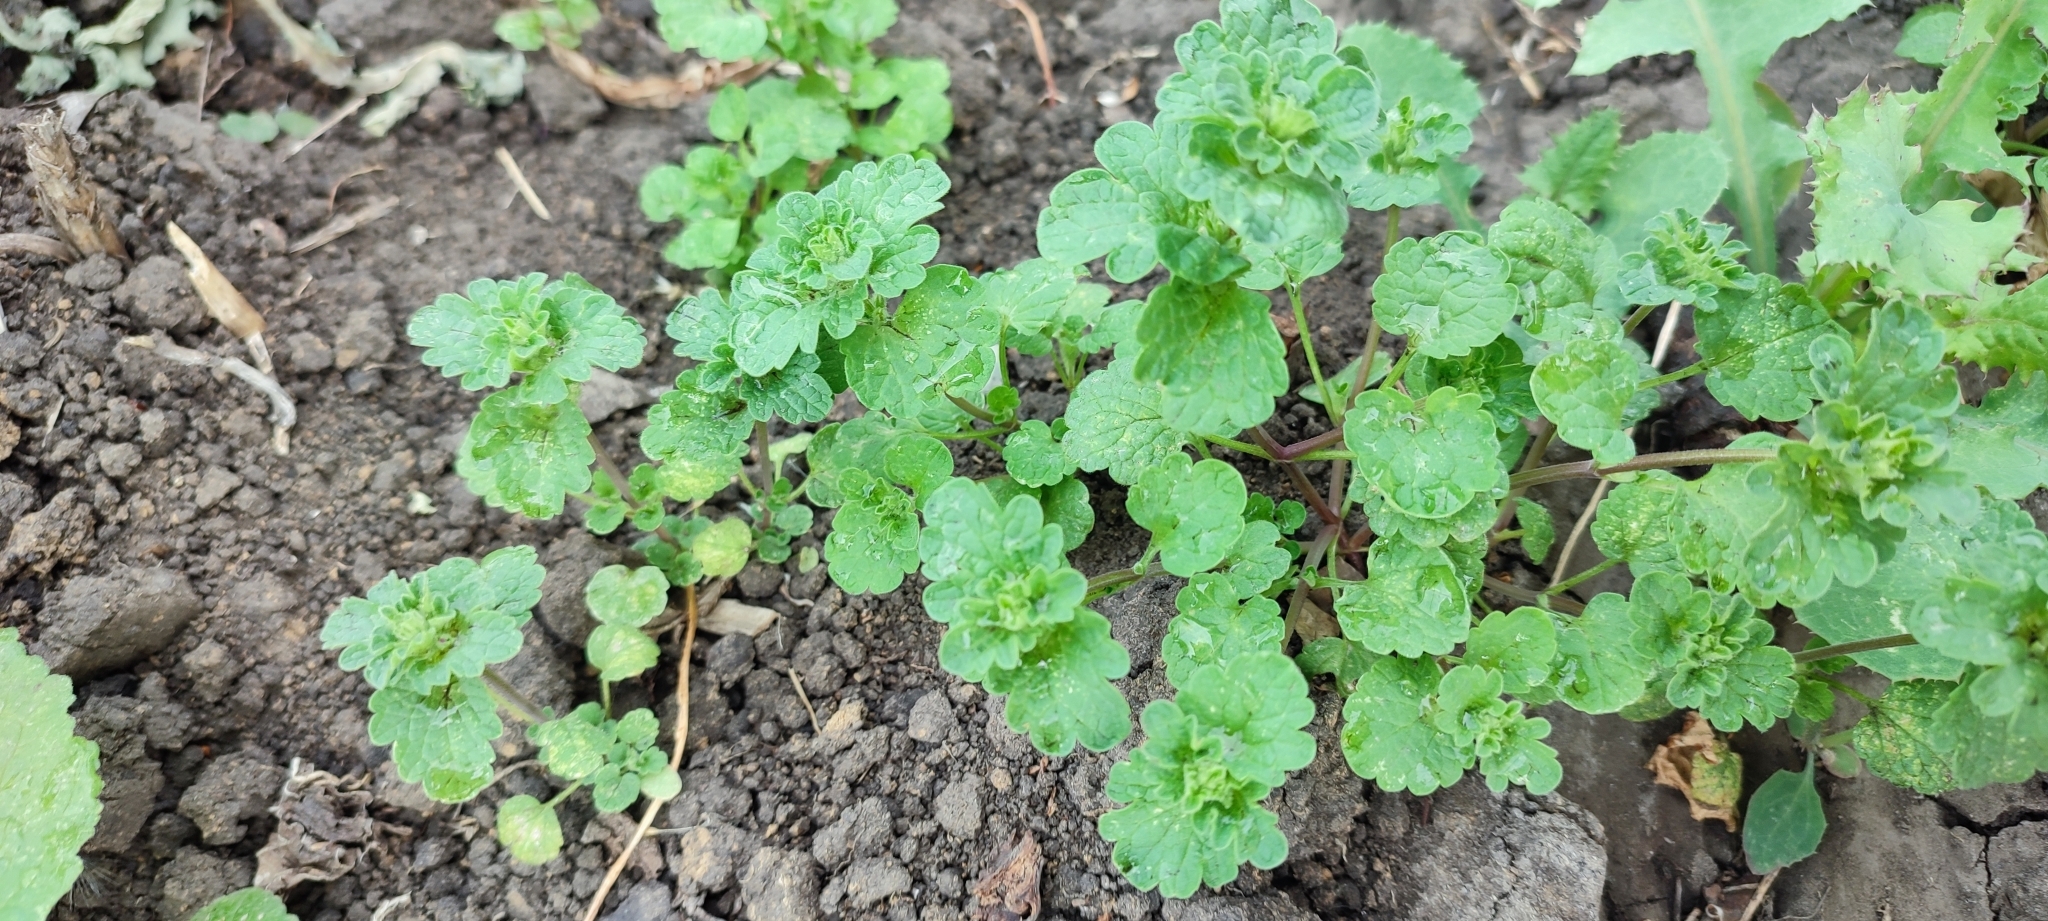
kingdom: Plantae
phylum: Tracheophyta
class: Magnoliopsida
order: Lamiales
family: Lamiaceae
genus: Lamium
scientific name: Lamium amplexicaule
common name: Henbit dead-nettle
